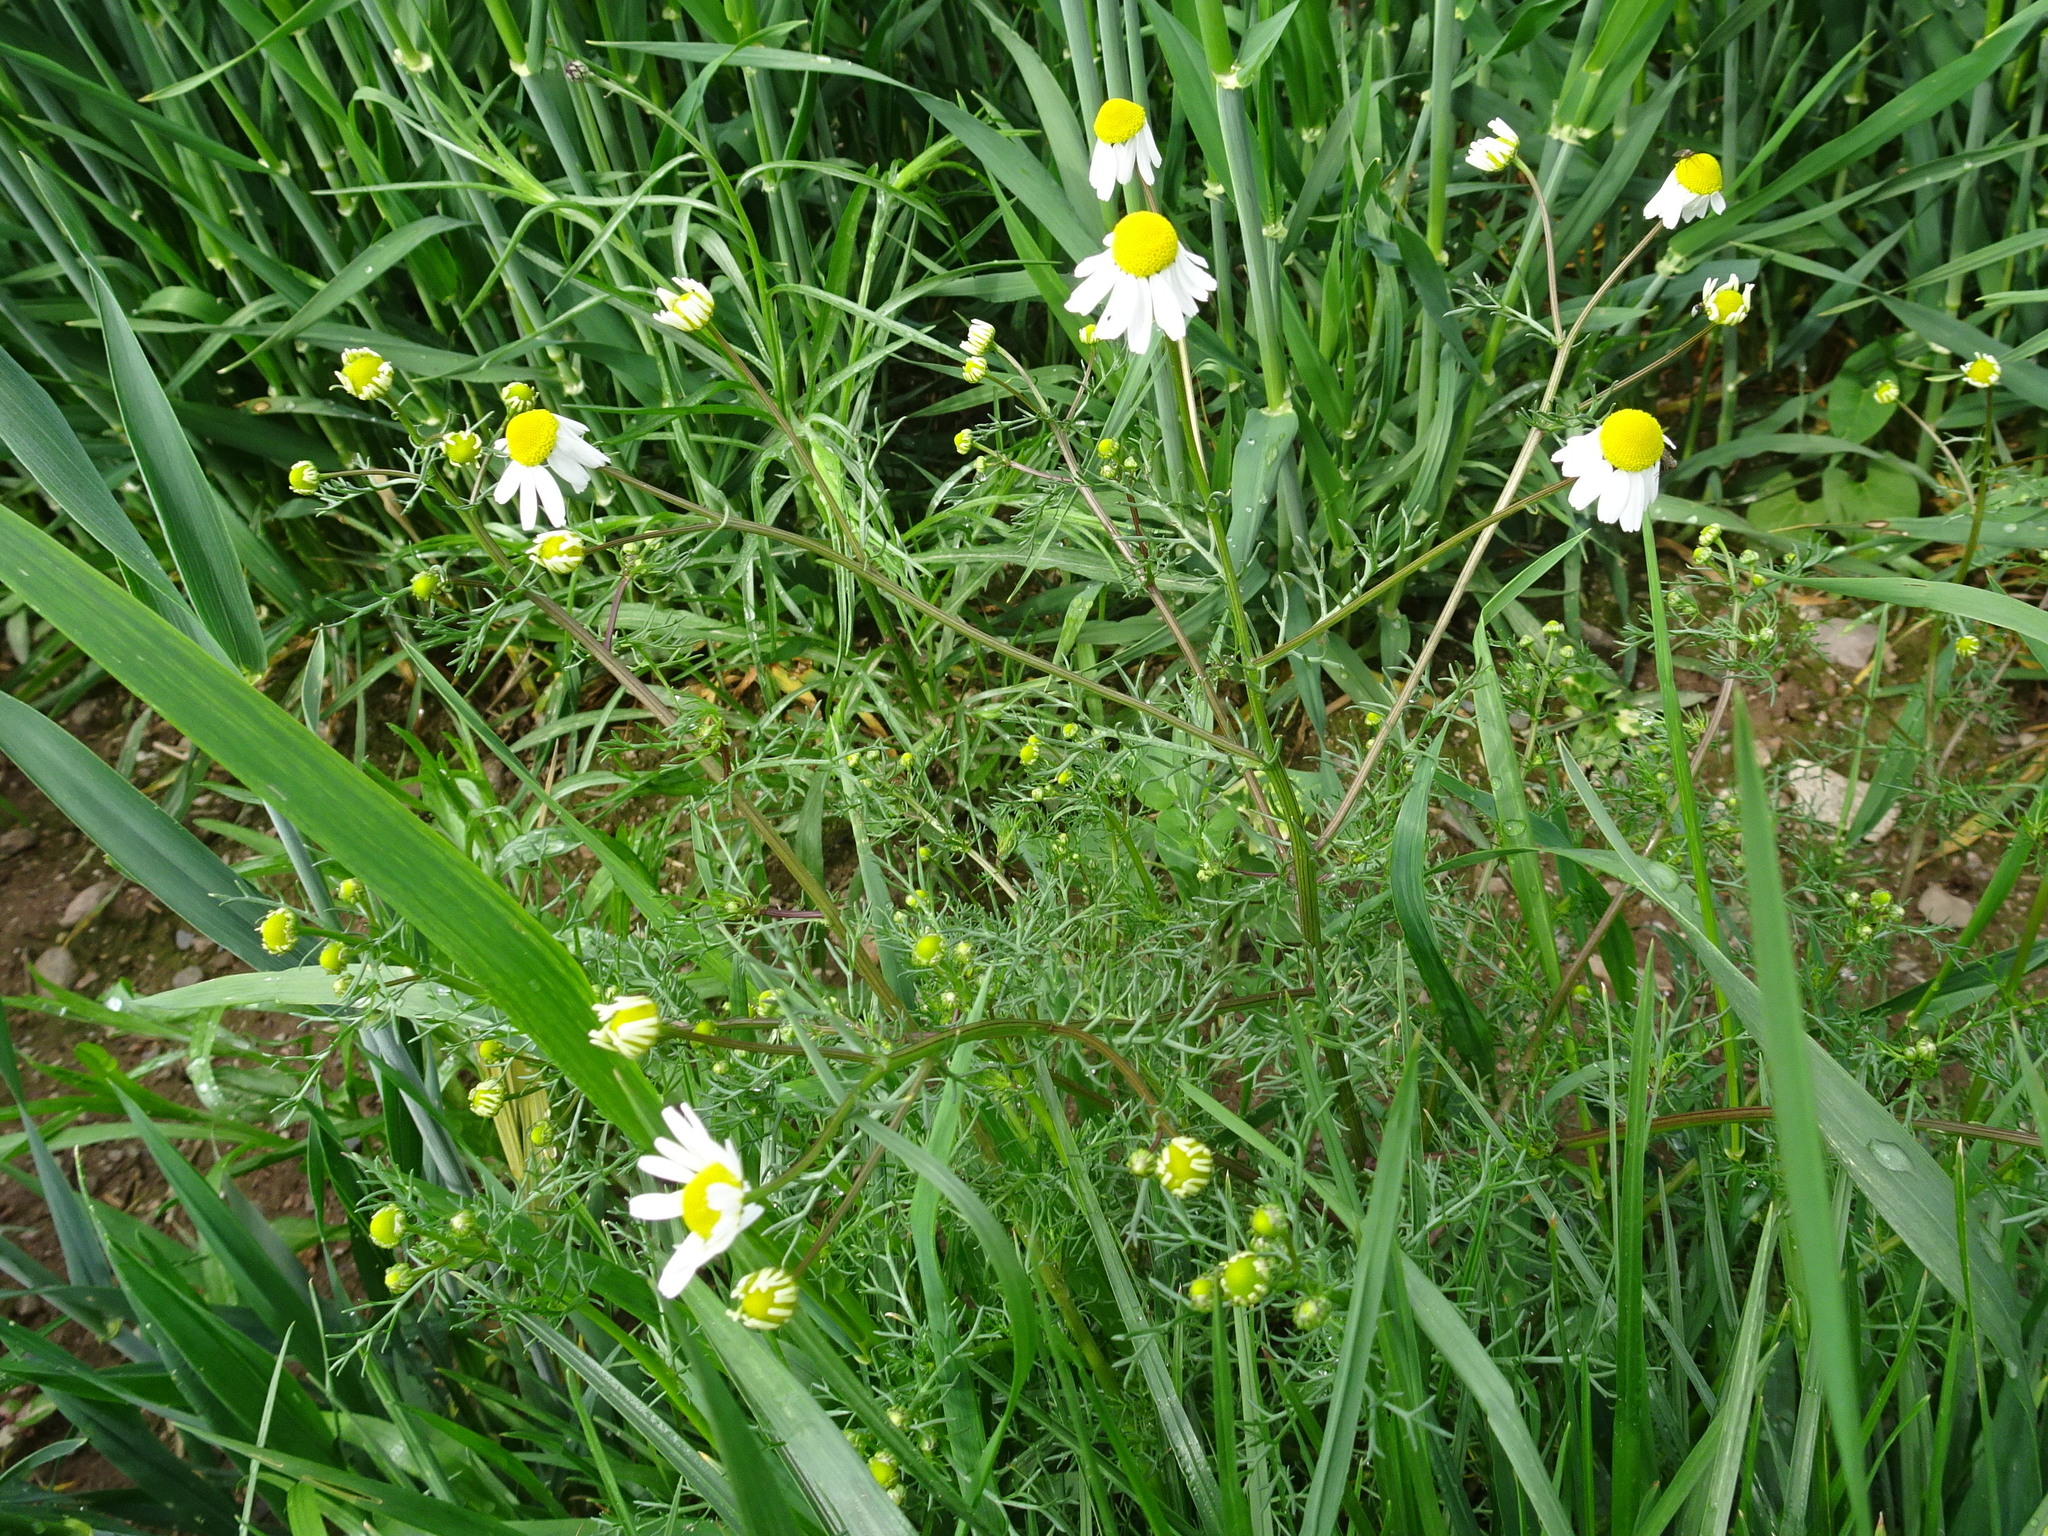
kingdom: Plantae
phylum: Tracheophyta
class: Magnoliopsida
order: Asterales
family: Asteraceae
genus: Matricaria
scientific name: Matricaria chamomilla
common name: Scented mayweed
